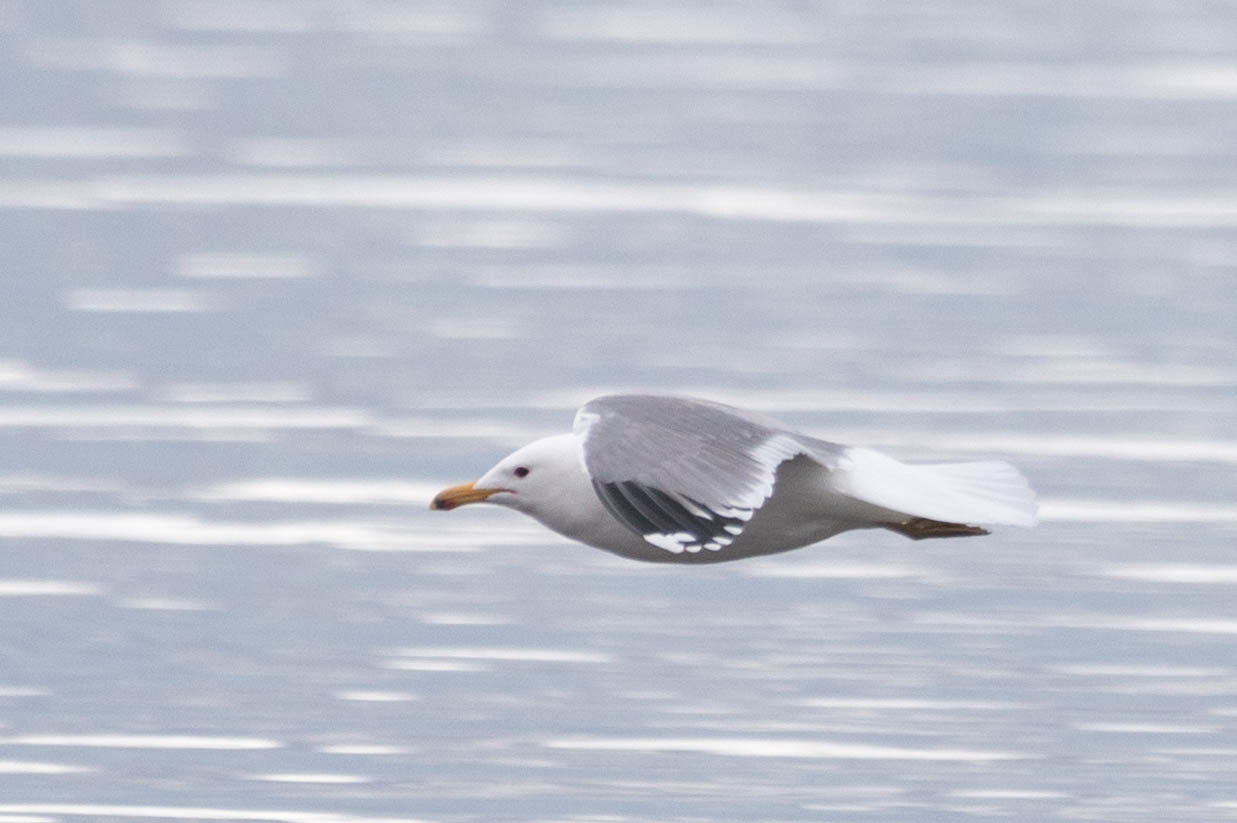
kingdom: Animalia
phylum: Chordata
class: Aves
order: Charadriiformes
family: Laridae
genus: Larus
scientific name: Larus californicus
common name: California gull
